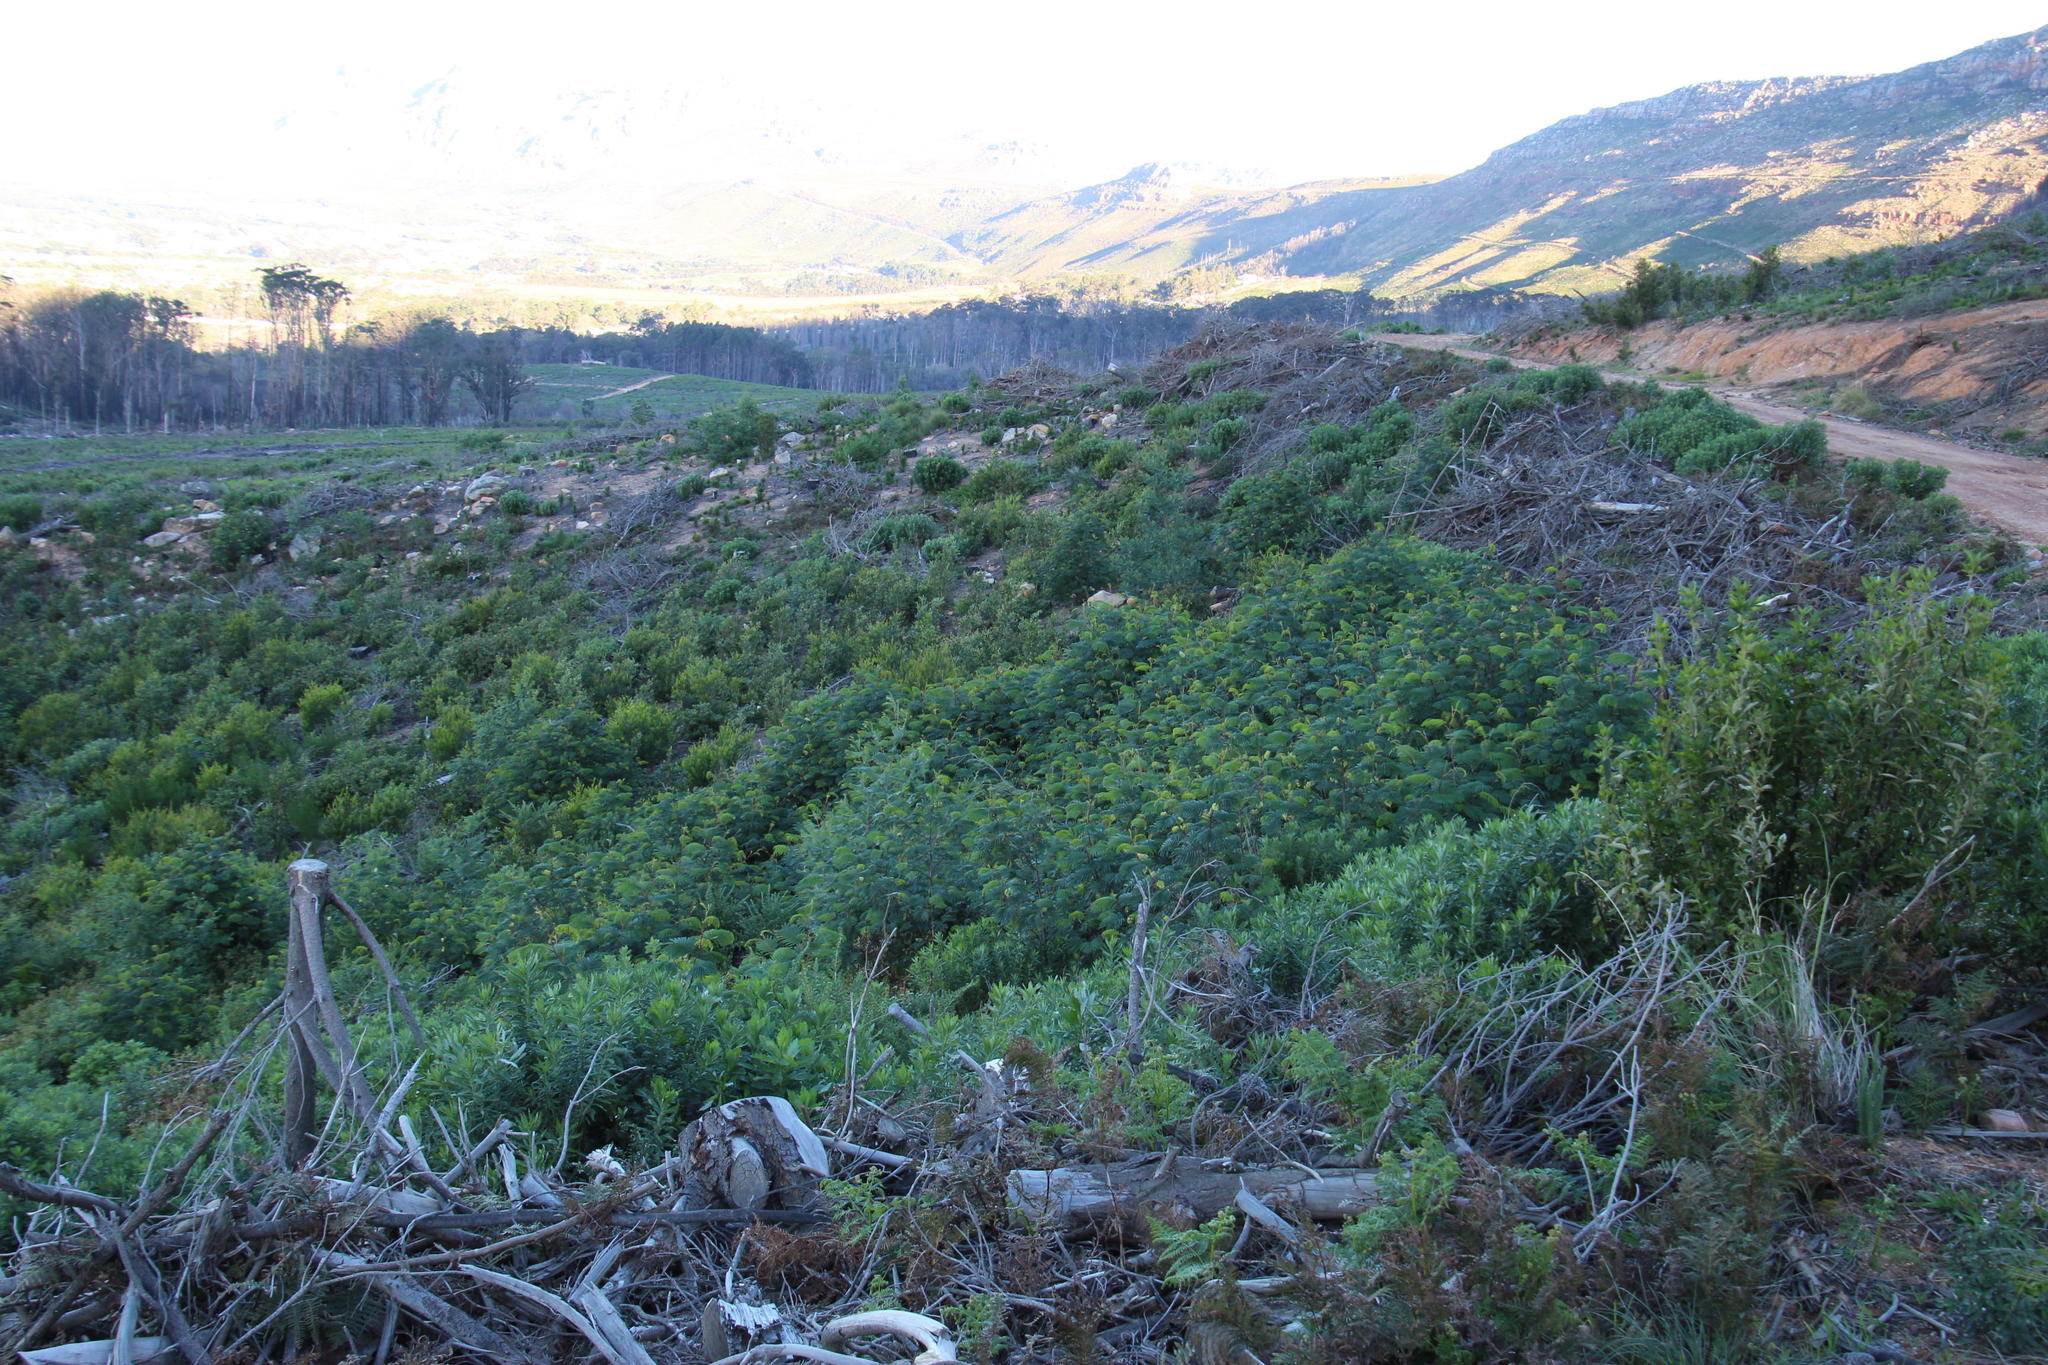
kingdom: Plantae
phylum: Tracheophyta
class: Magnoliopsida
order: Fabales
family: Fabaceae
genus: Paraserianthes
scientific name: Paraserianthes lophantha
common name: Plume albizia
